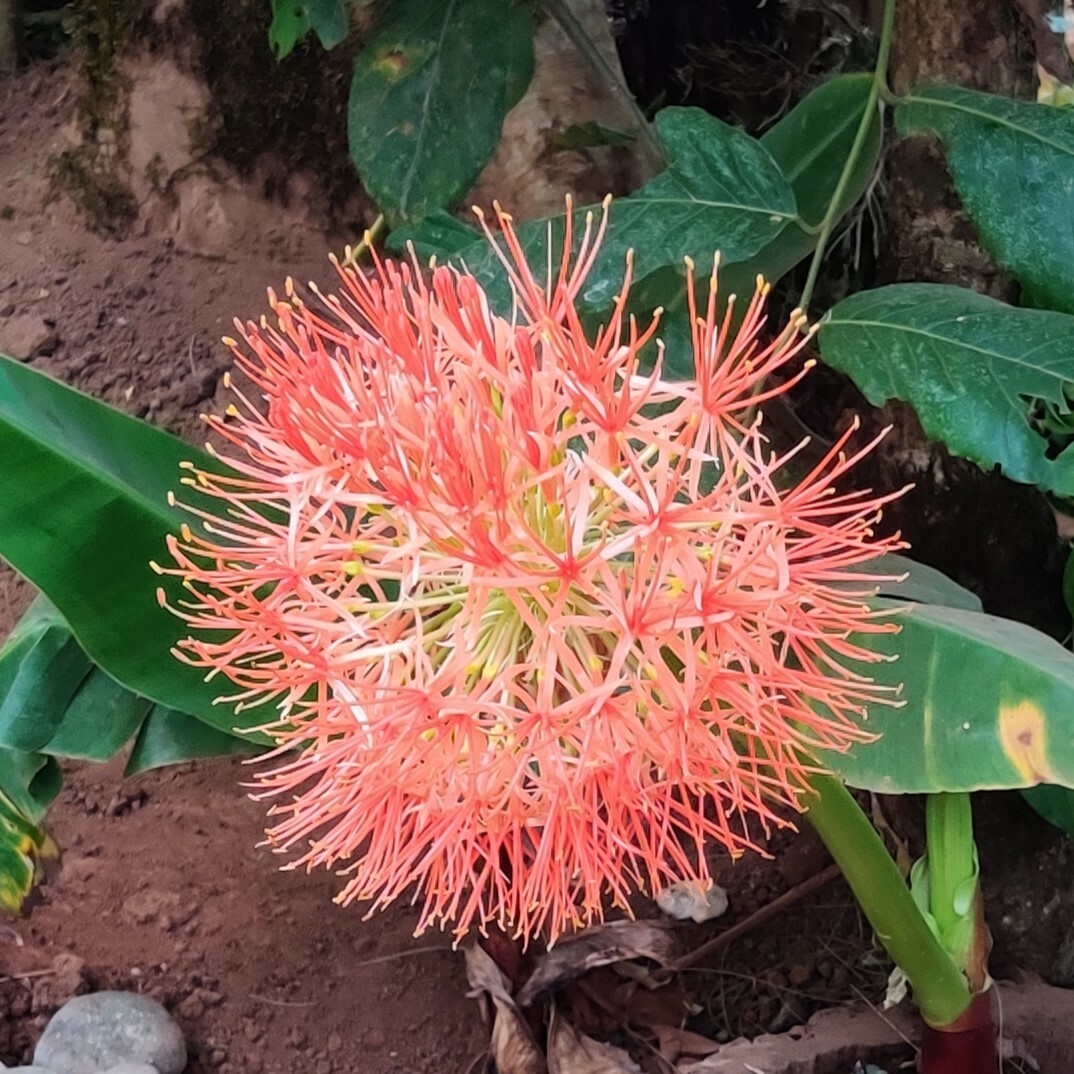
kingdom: Plantae
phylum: Tracheophyta
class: Liliopsida
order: Asparagales
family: Amaryllidaceae
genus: Scadoxus
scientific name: Scadoxus multiflorus
